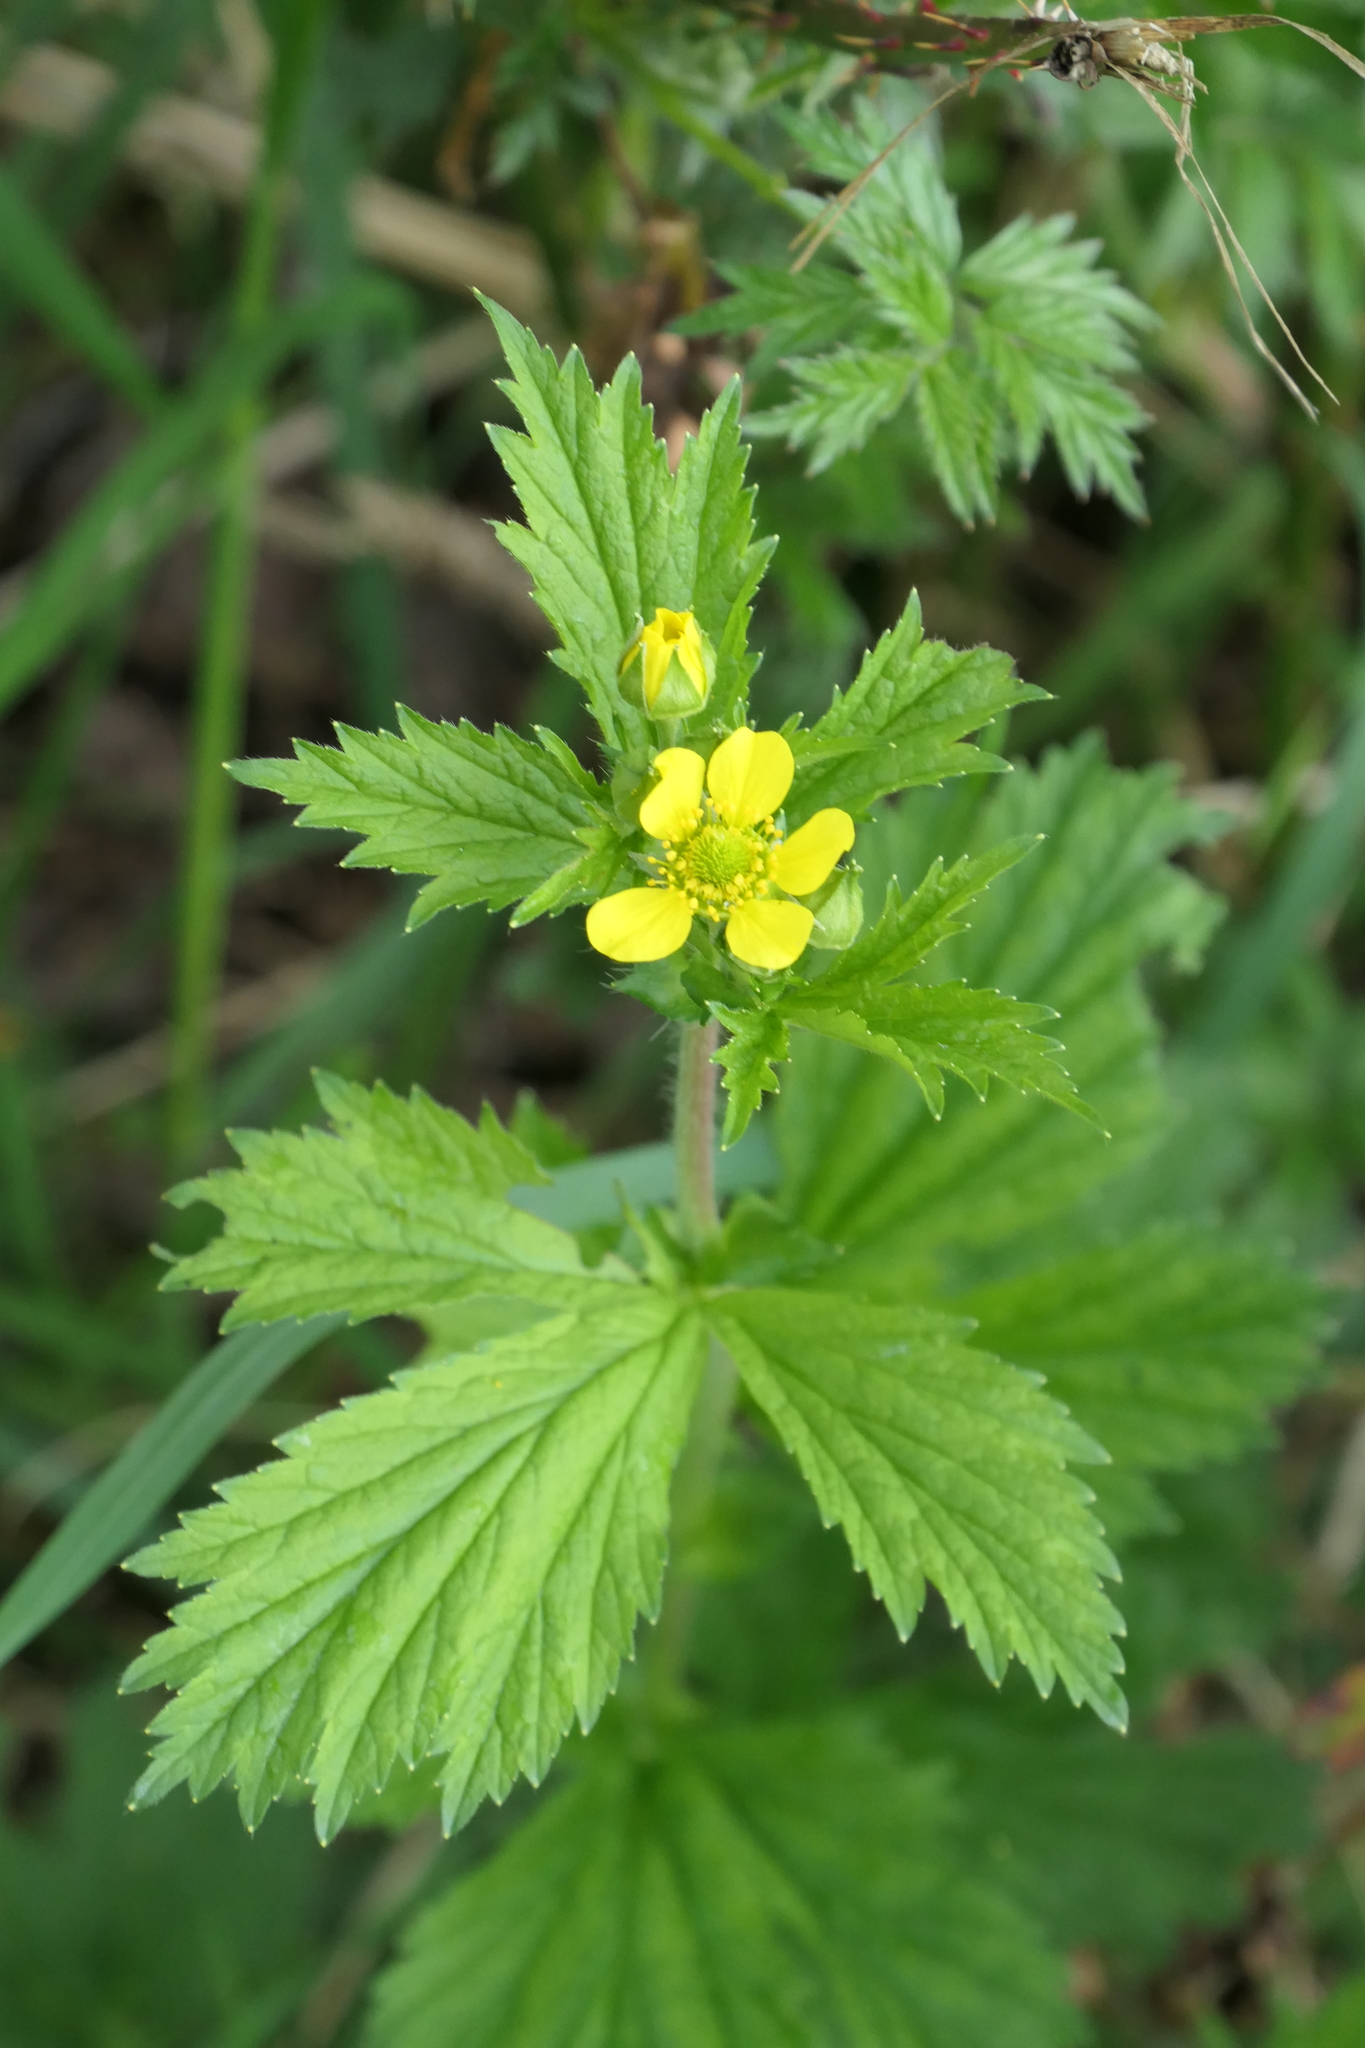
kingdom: Plantae
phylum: Tracheophyta
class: Magnoliopsida
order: Rosales
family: Rosaceae
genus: Geum
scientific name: Geum macrophyllum
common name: Large-leaved avens
